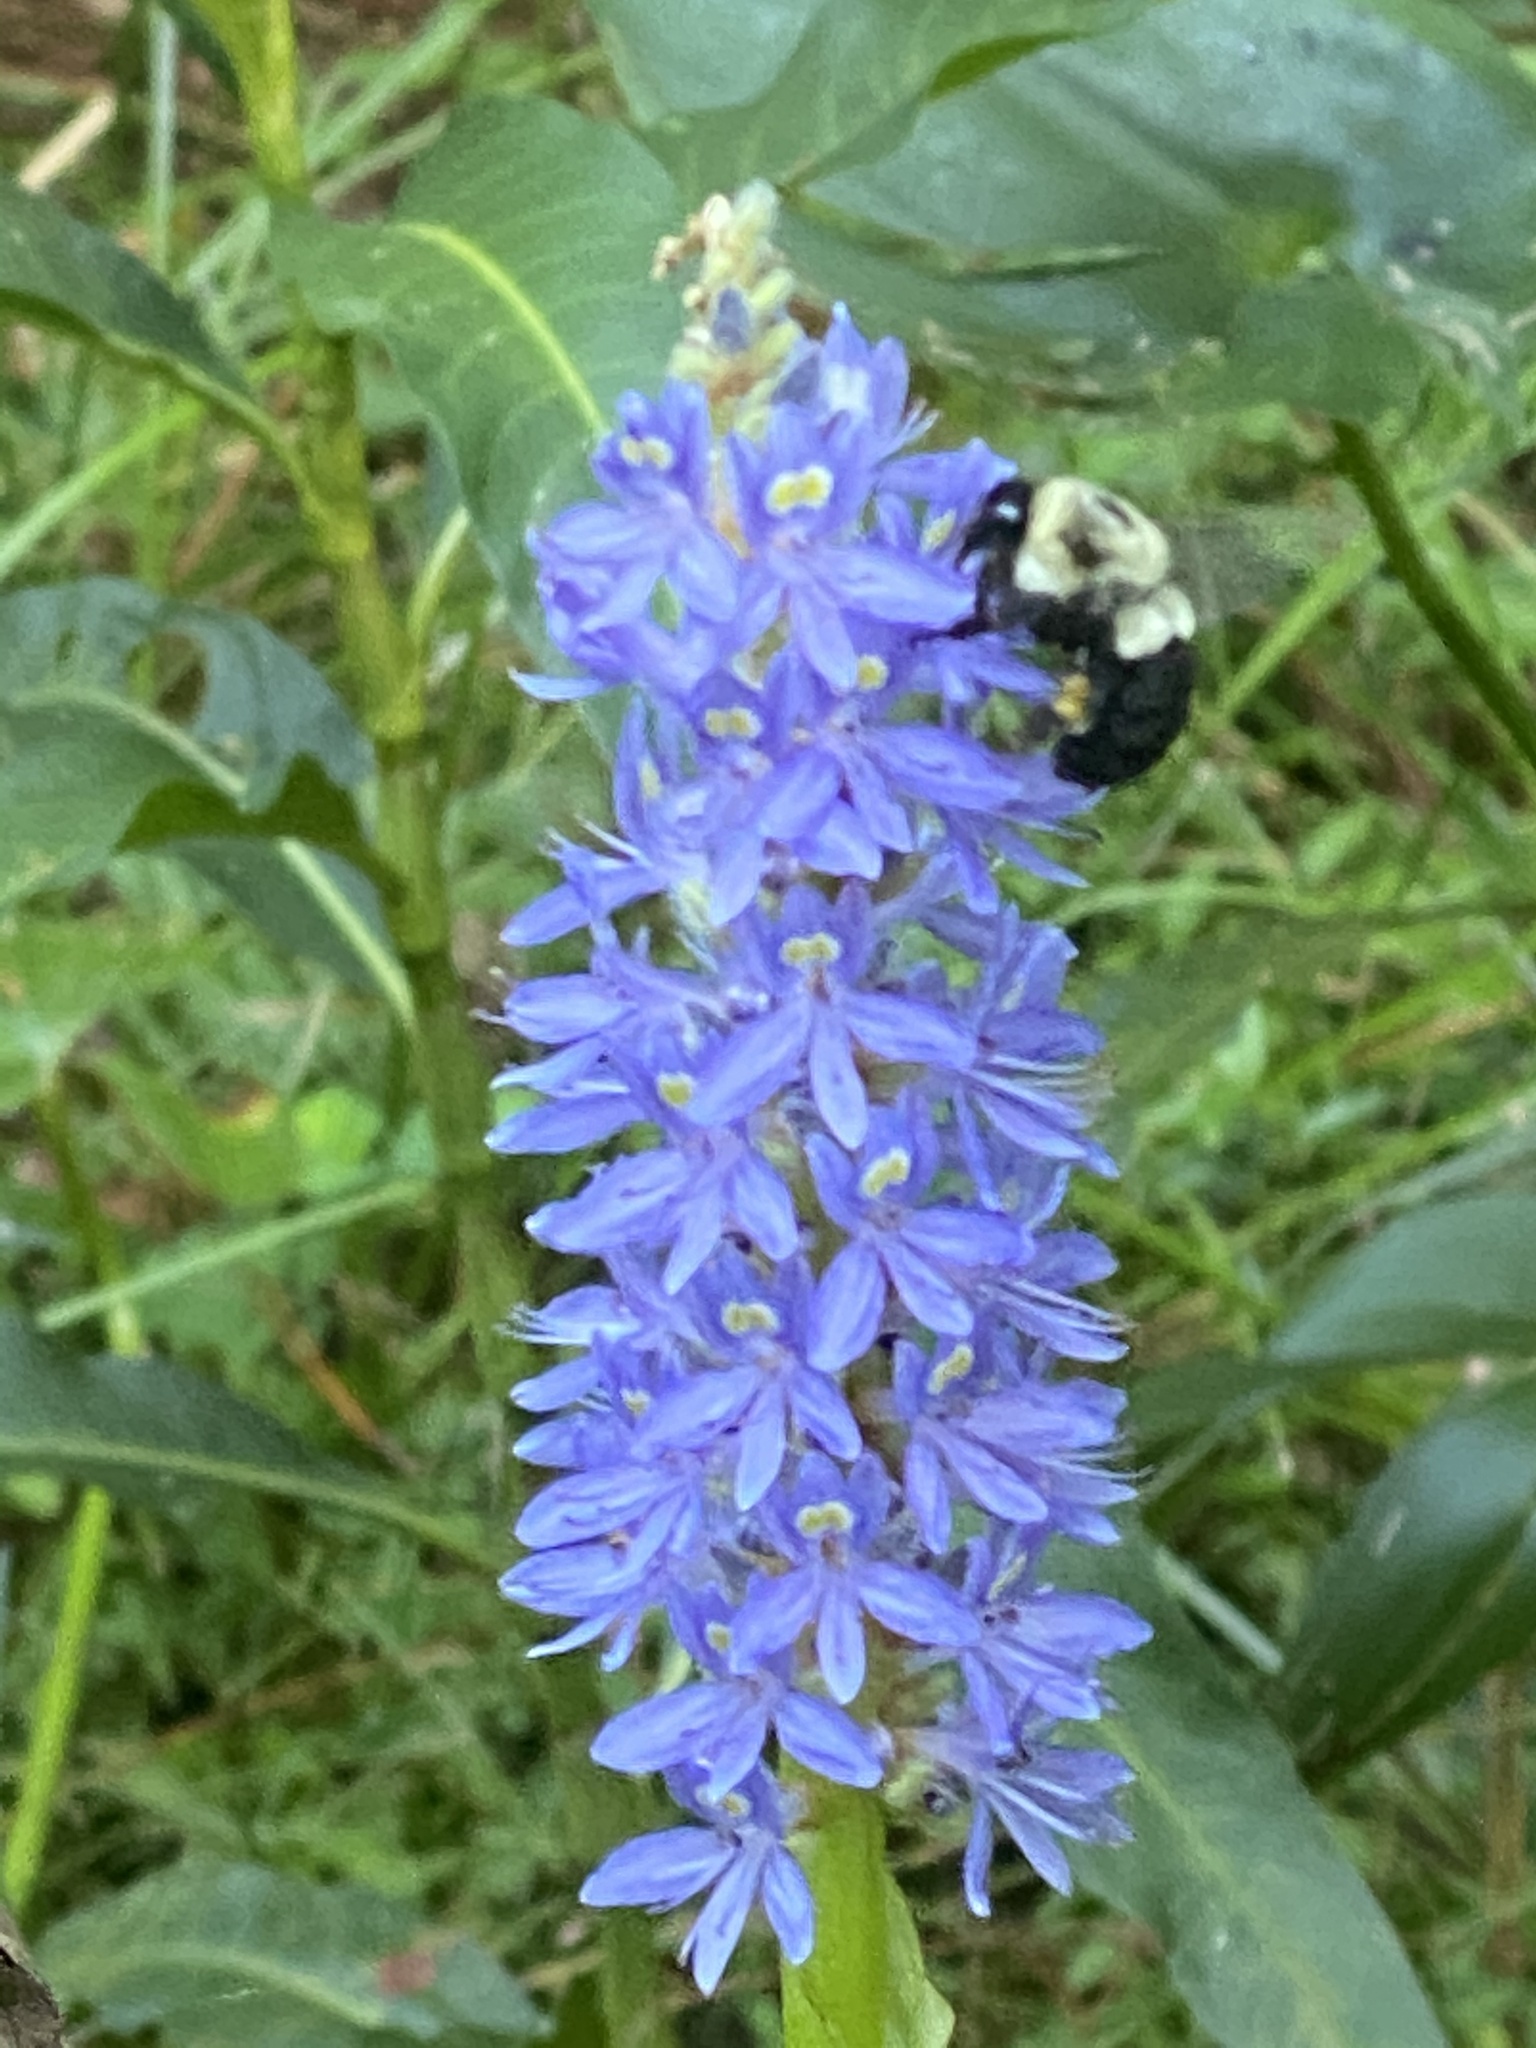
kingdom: Animalia
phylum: Arthropoda
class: Insecta
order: Hymenoptera
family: Apidae
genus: Bombus
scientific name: Bombus impatiens
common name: Common eastern bumble bee
